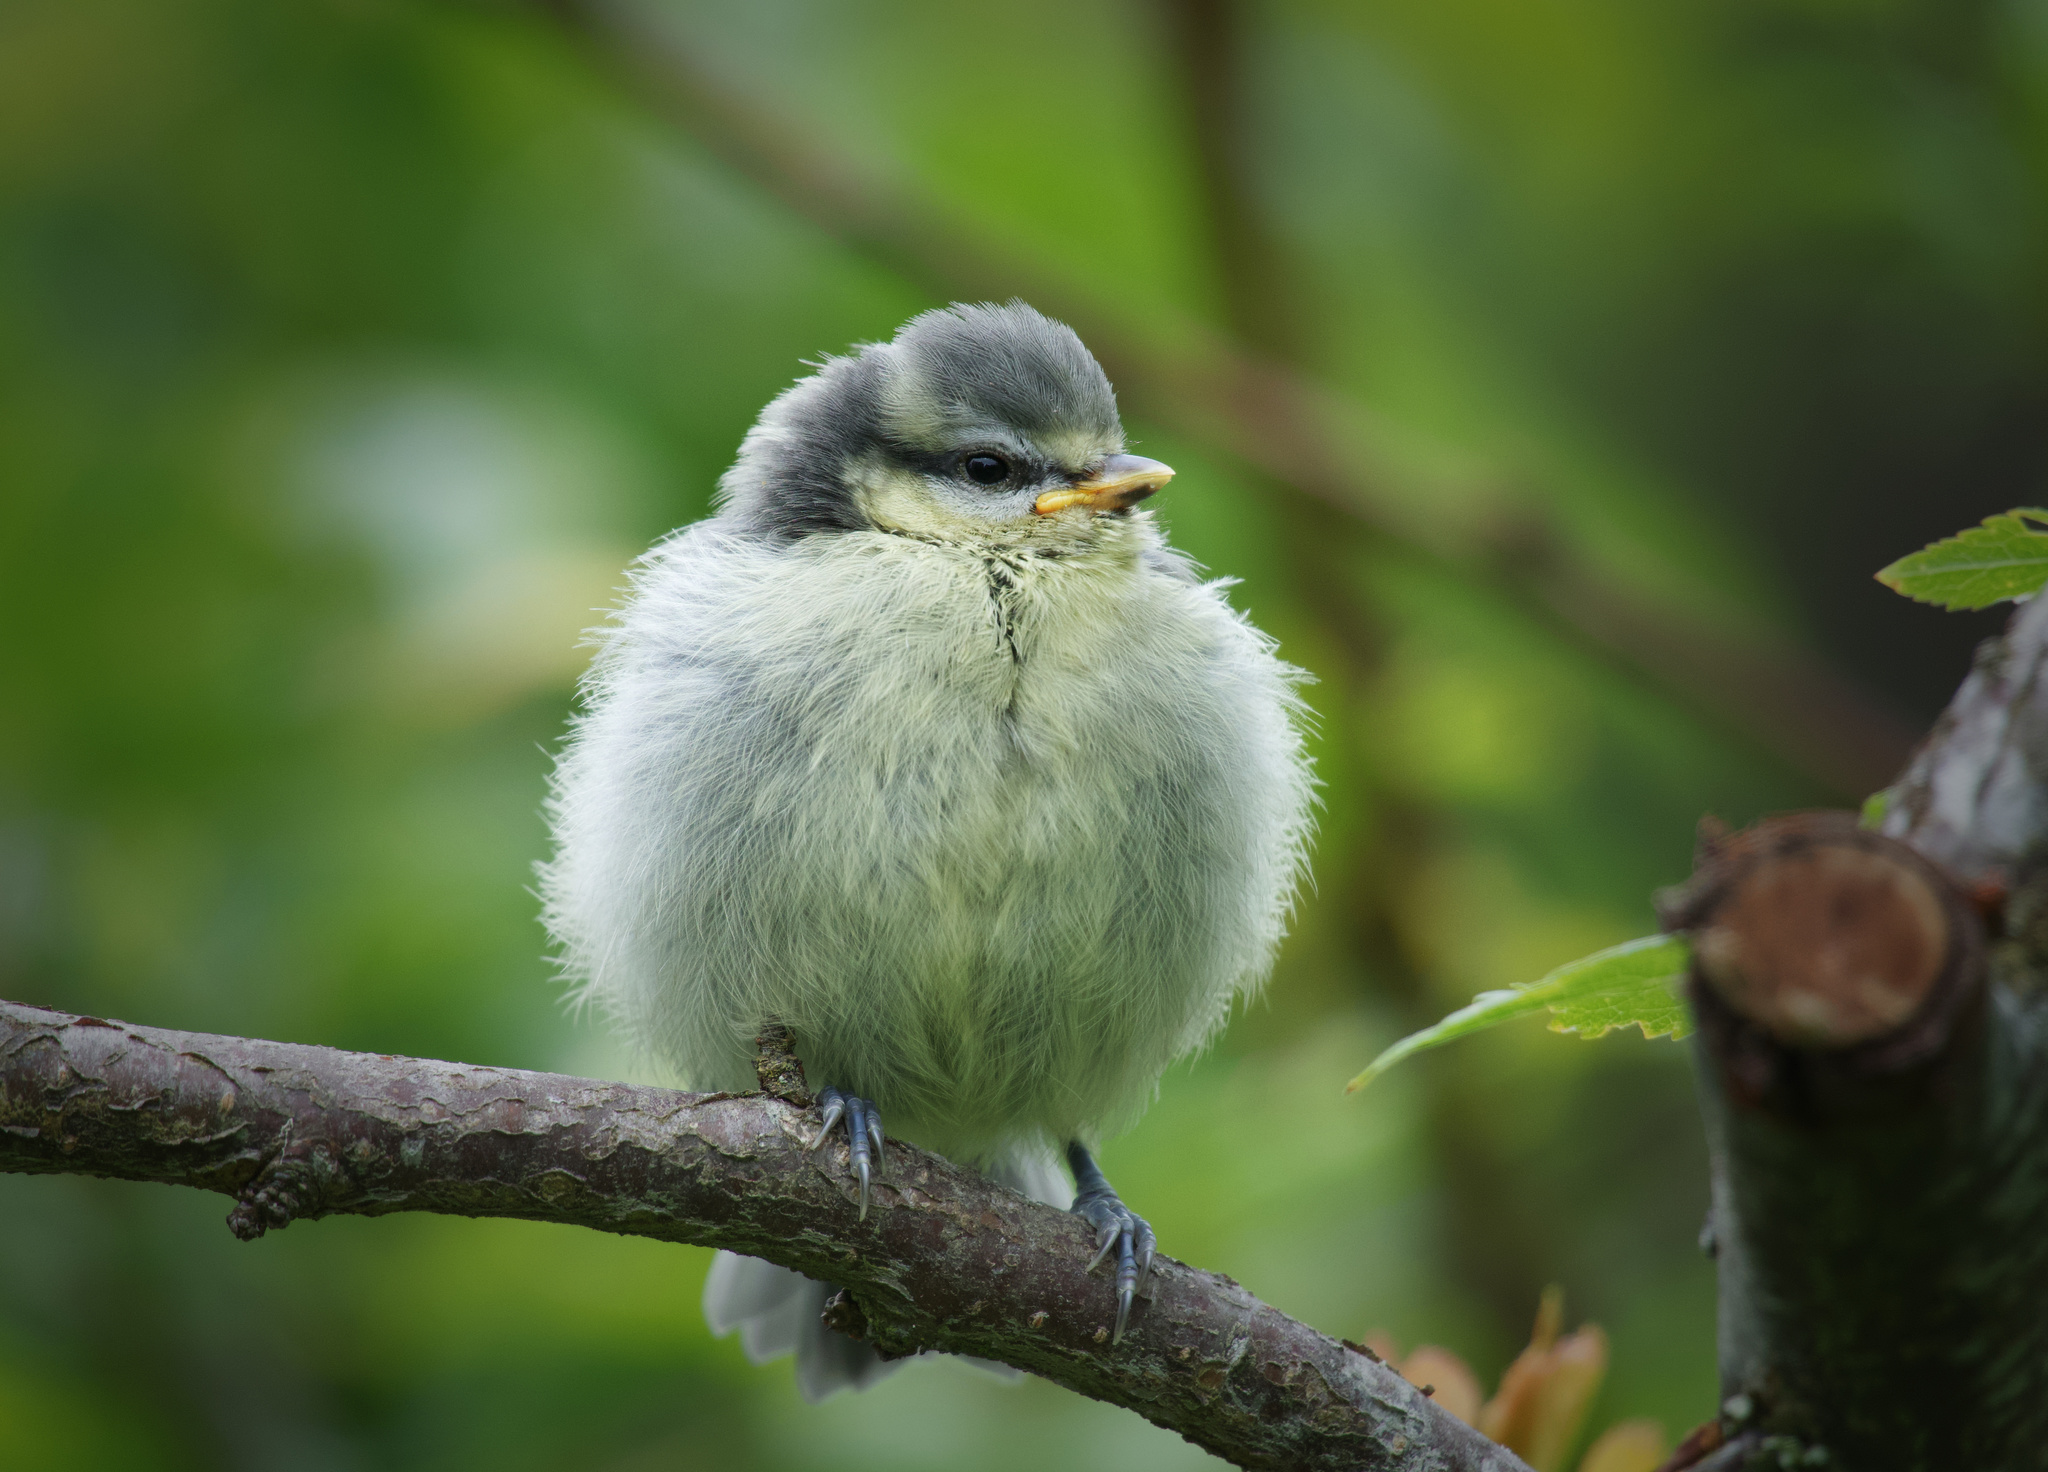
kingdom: Animalia
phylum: Chordata
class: Aves
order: Passeriformes
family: Paridae
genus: Cyanistes
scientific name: Cyanistes caeruleus
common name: Eurasian blue tit
